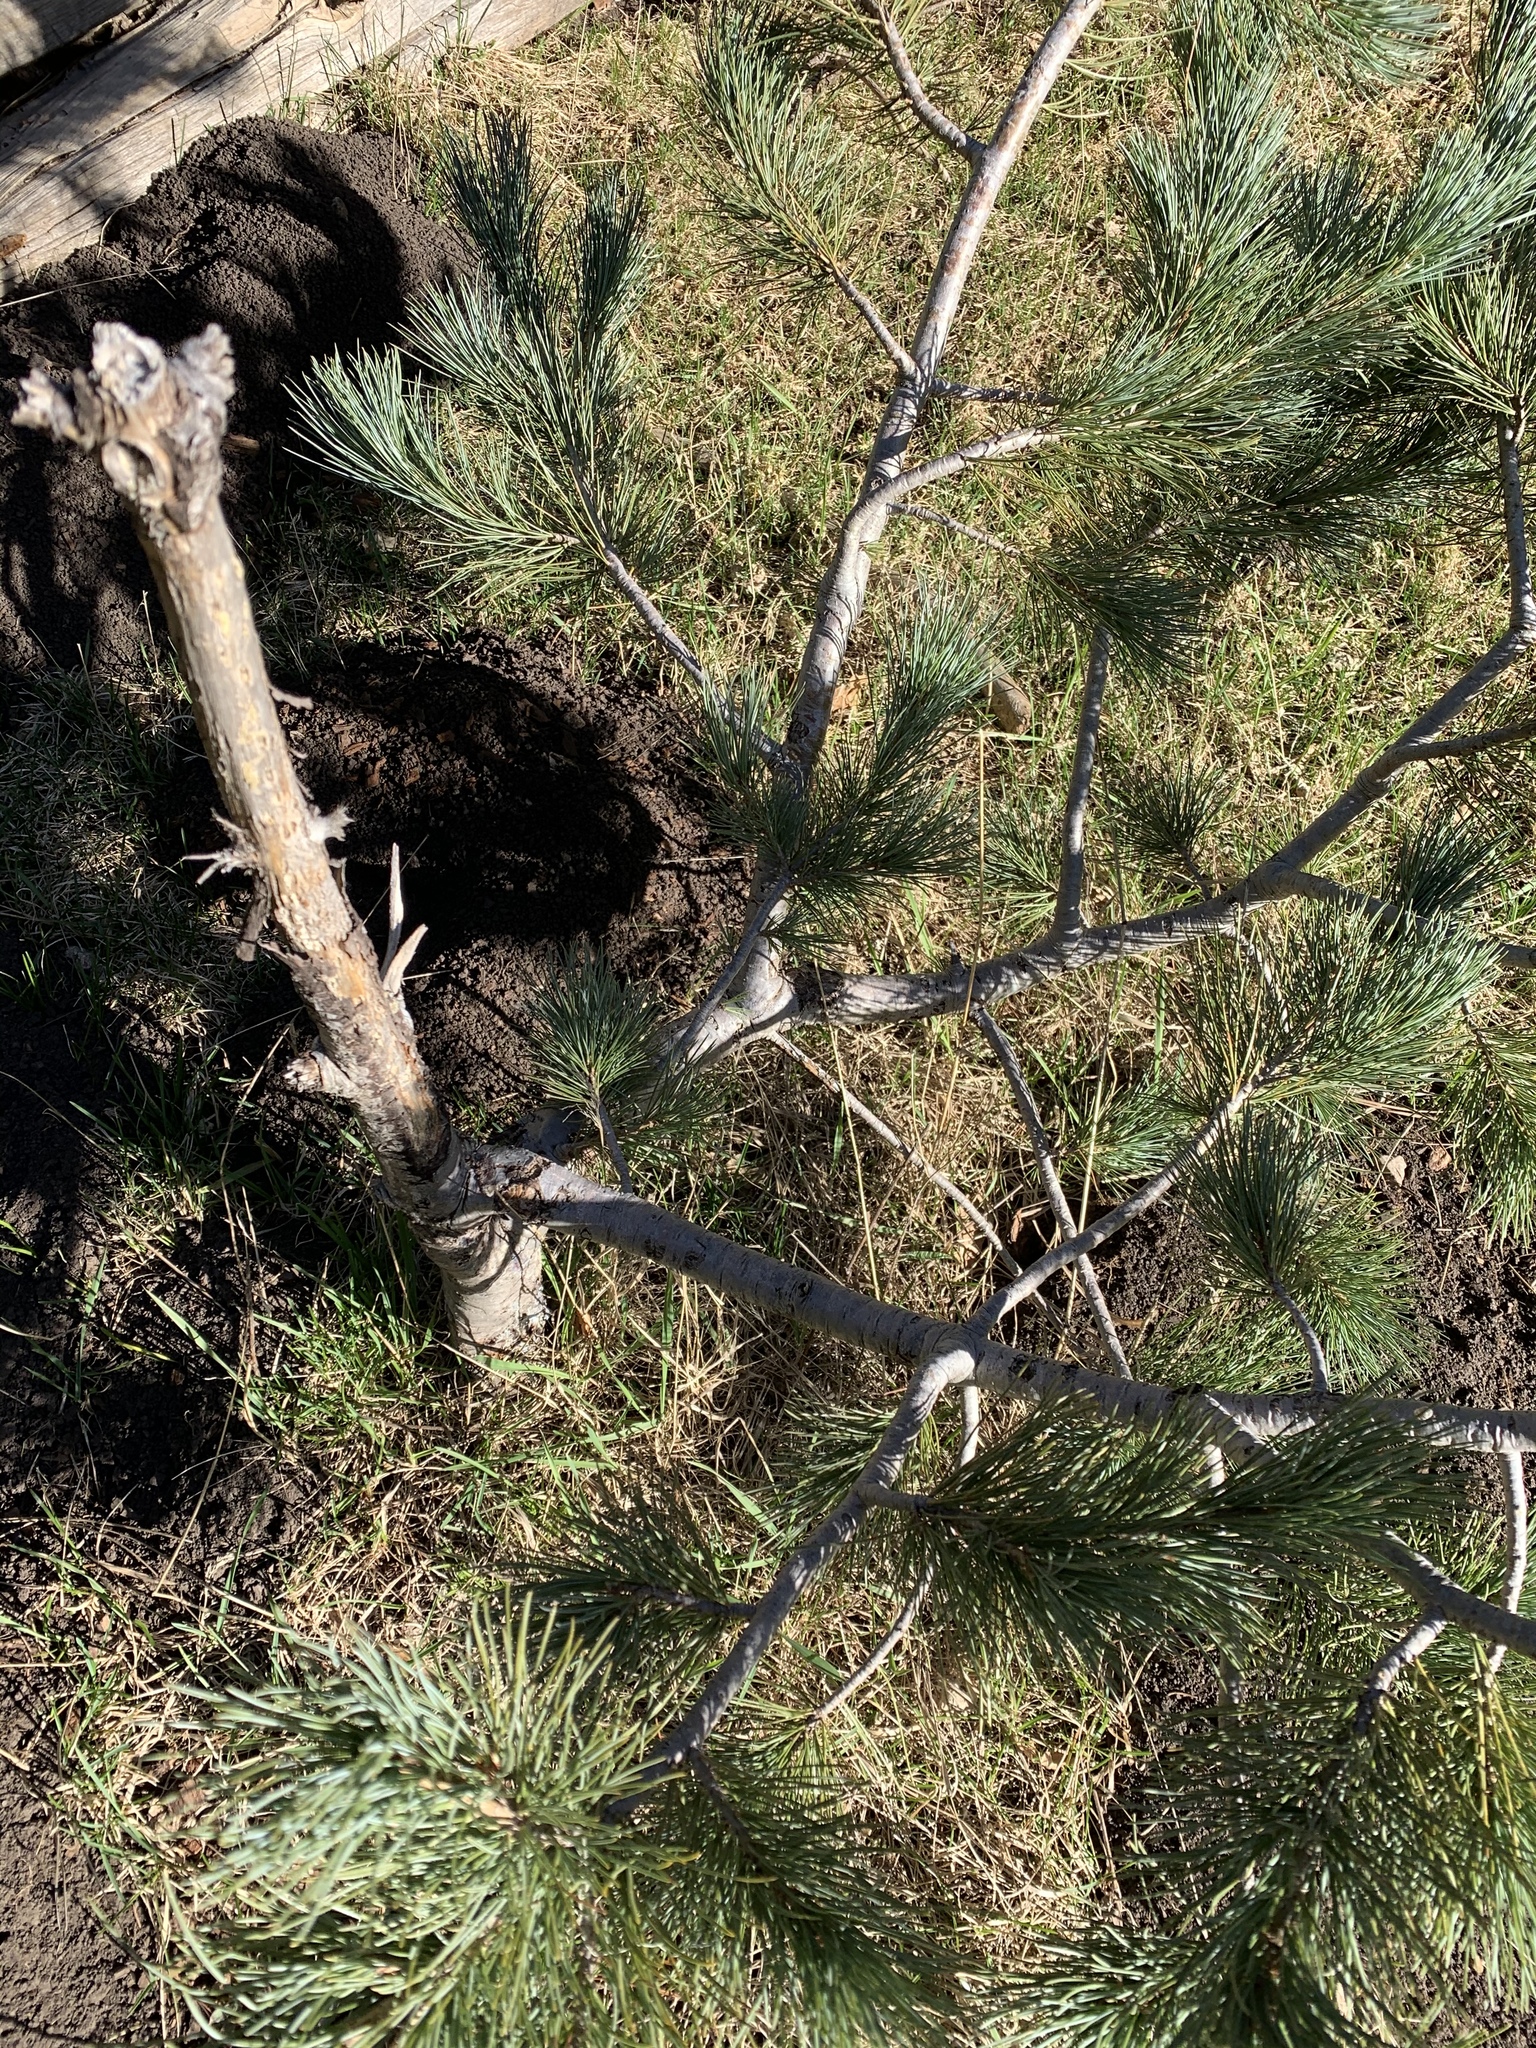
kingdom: Plantae
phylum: Tracheophyta
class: Pinopsida
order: Pinales
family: Pinaceae
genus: Pinus
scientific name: Pinus strobiformis
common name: Southwestern white pine
